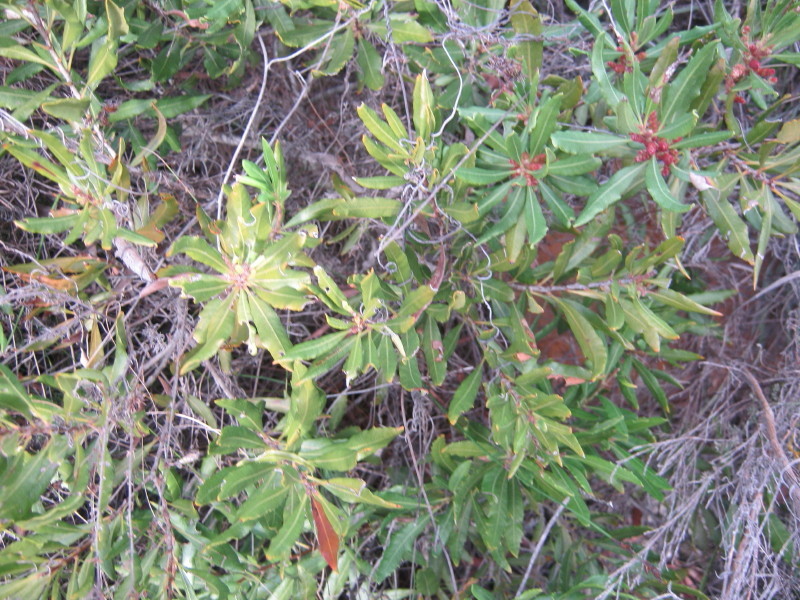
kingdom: Plantae
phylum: Tracheophyta
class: Magnoliopsida
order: Fagales
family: Myricaceae
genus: Morella
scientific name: Morella serrata
